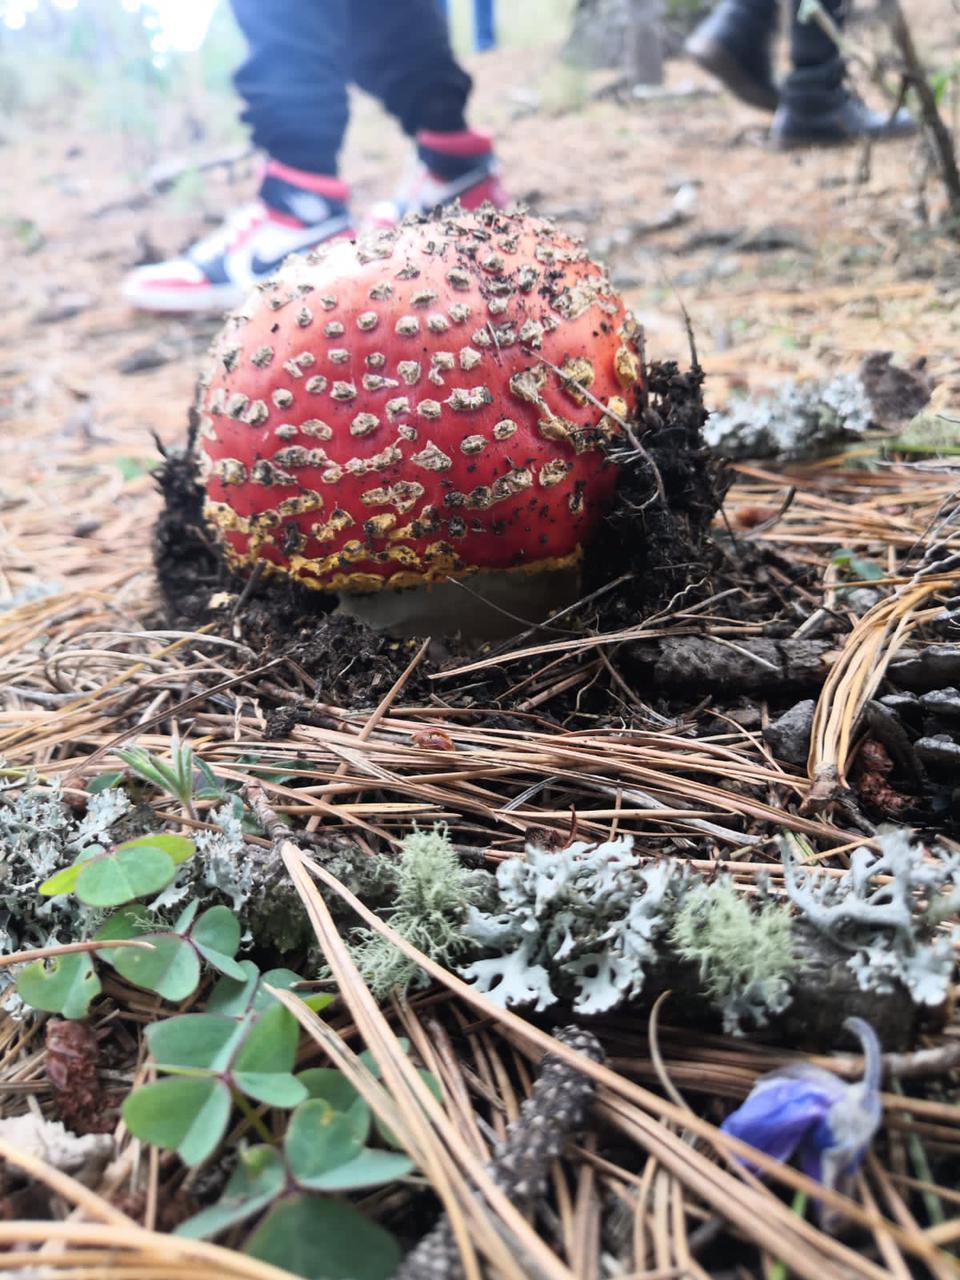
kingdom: Fungi
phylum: Basidiomycota
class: Agaricomycetes
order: Agaricales
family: Amanitaceae
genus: Amanita
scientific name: Amanita muscaria
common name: Fly agaric
